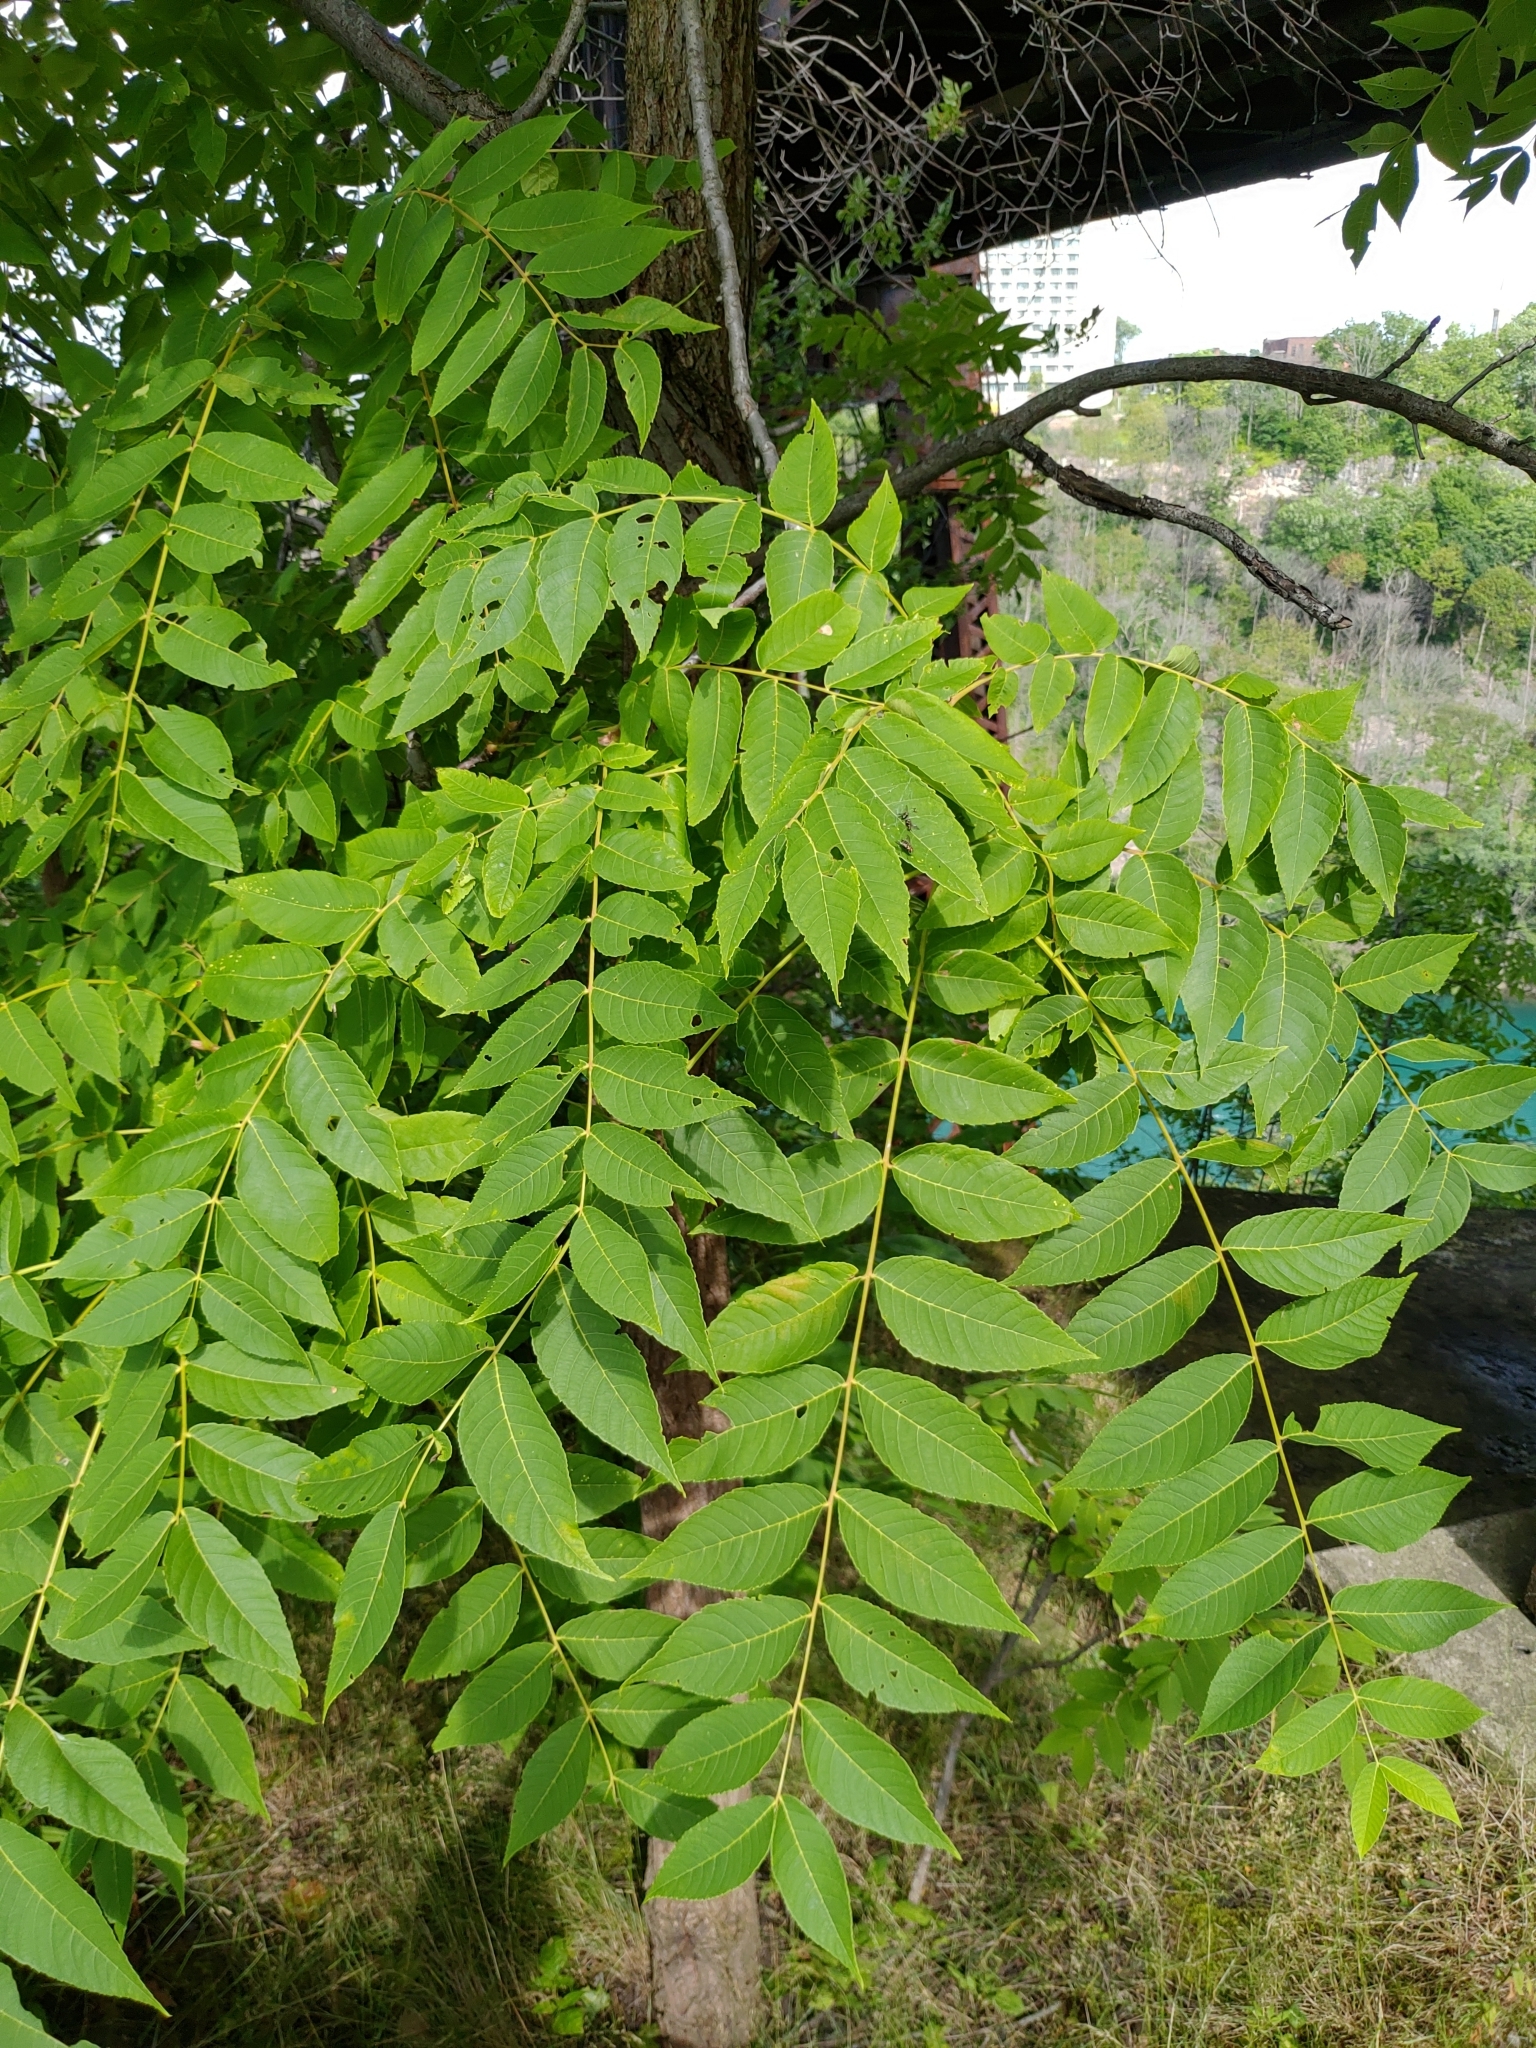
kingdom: Plantae
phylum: Tracheophyta
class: Magnoliopsida
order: Fagales
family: Juglandaceae
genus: Juglans
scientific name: Juglans nigra
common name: Black walnut
